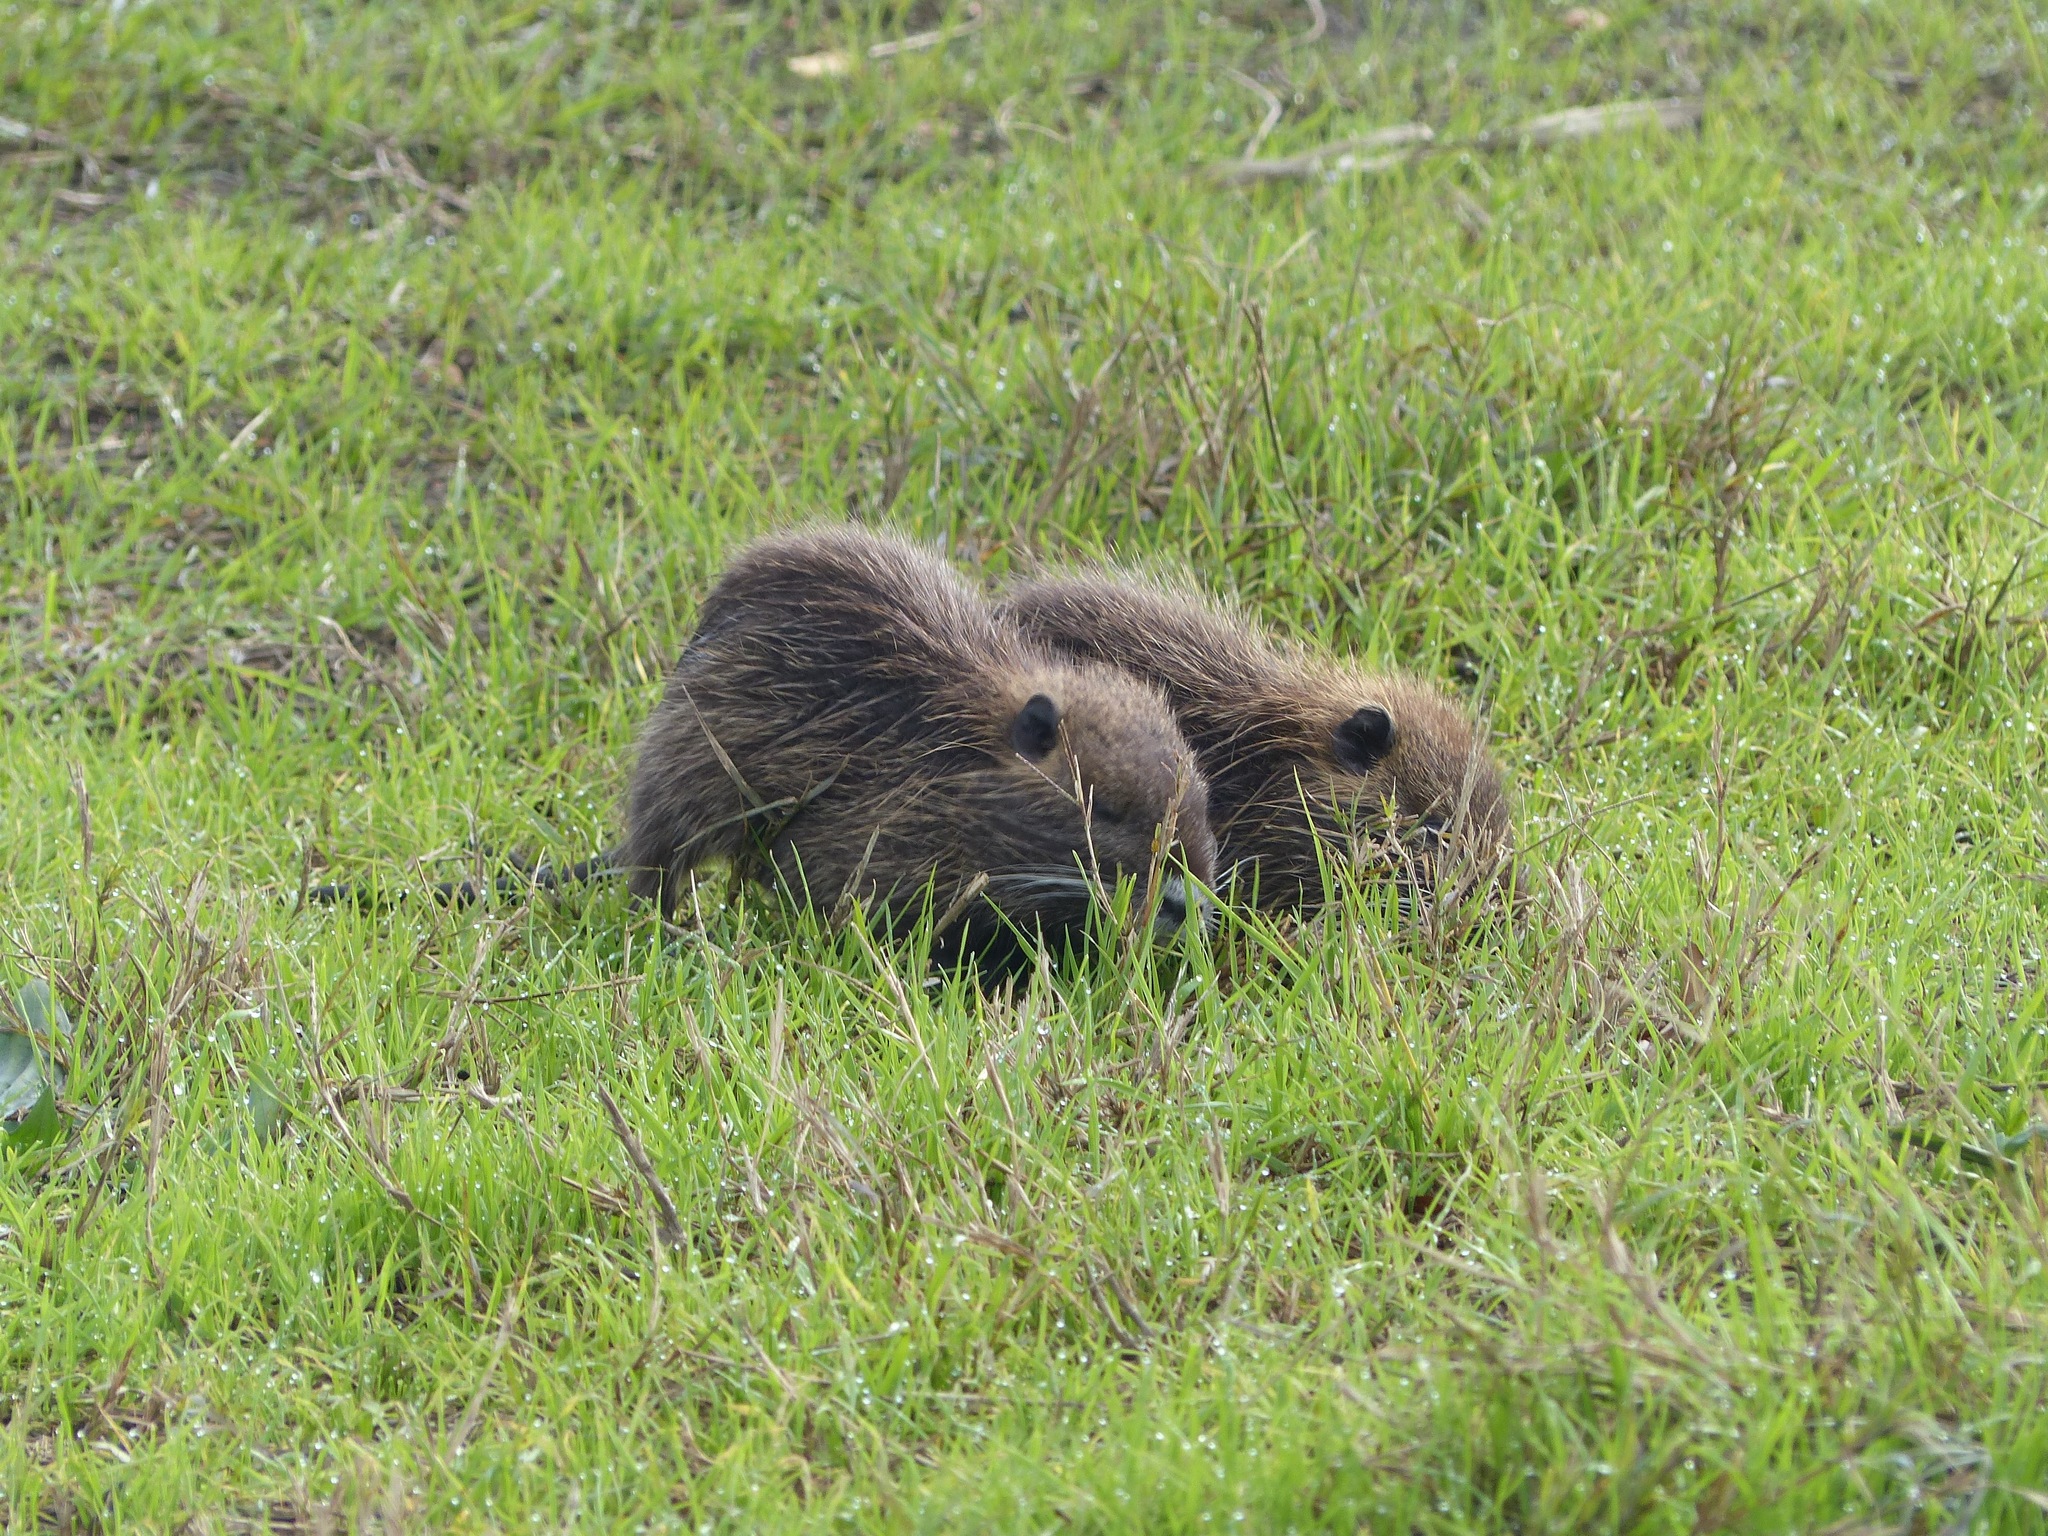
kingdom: Animalia
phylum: Chordata
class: Mammalia
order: Rodentia
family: Myocastoridae
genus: Myocastor
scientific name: Myocastor coypus
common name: Coypu
